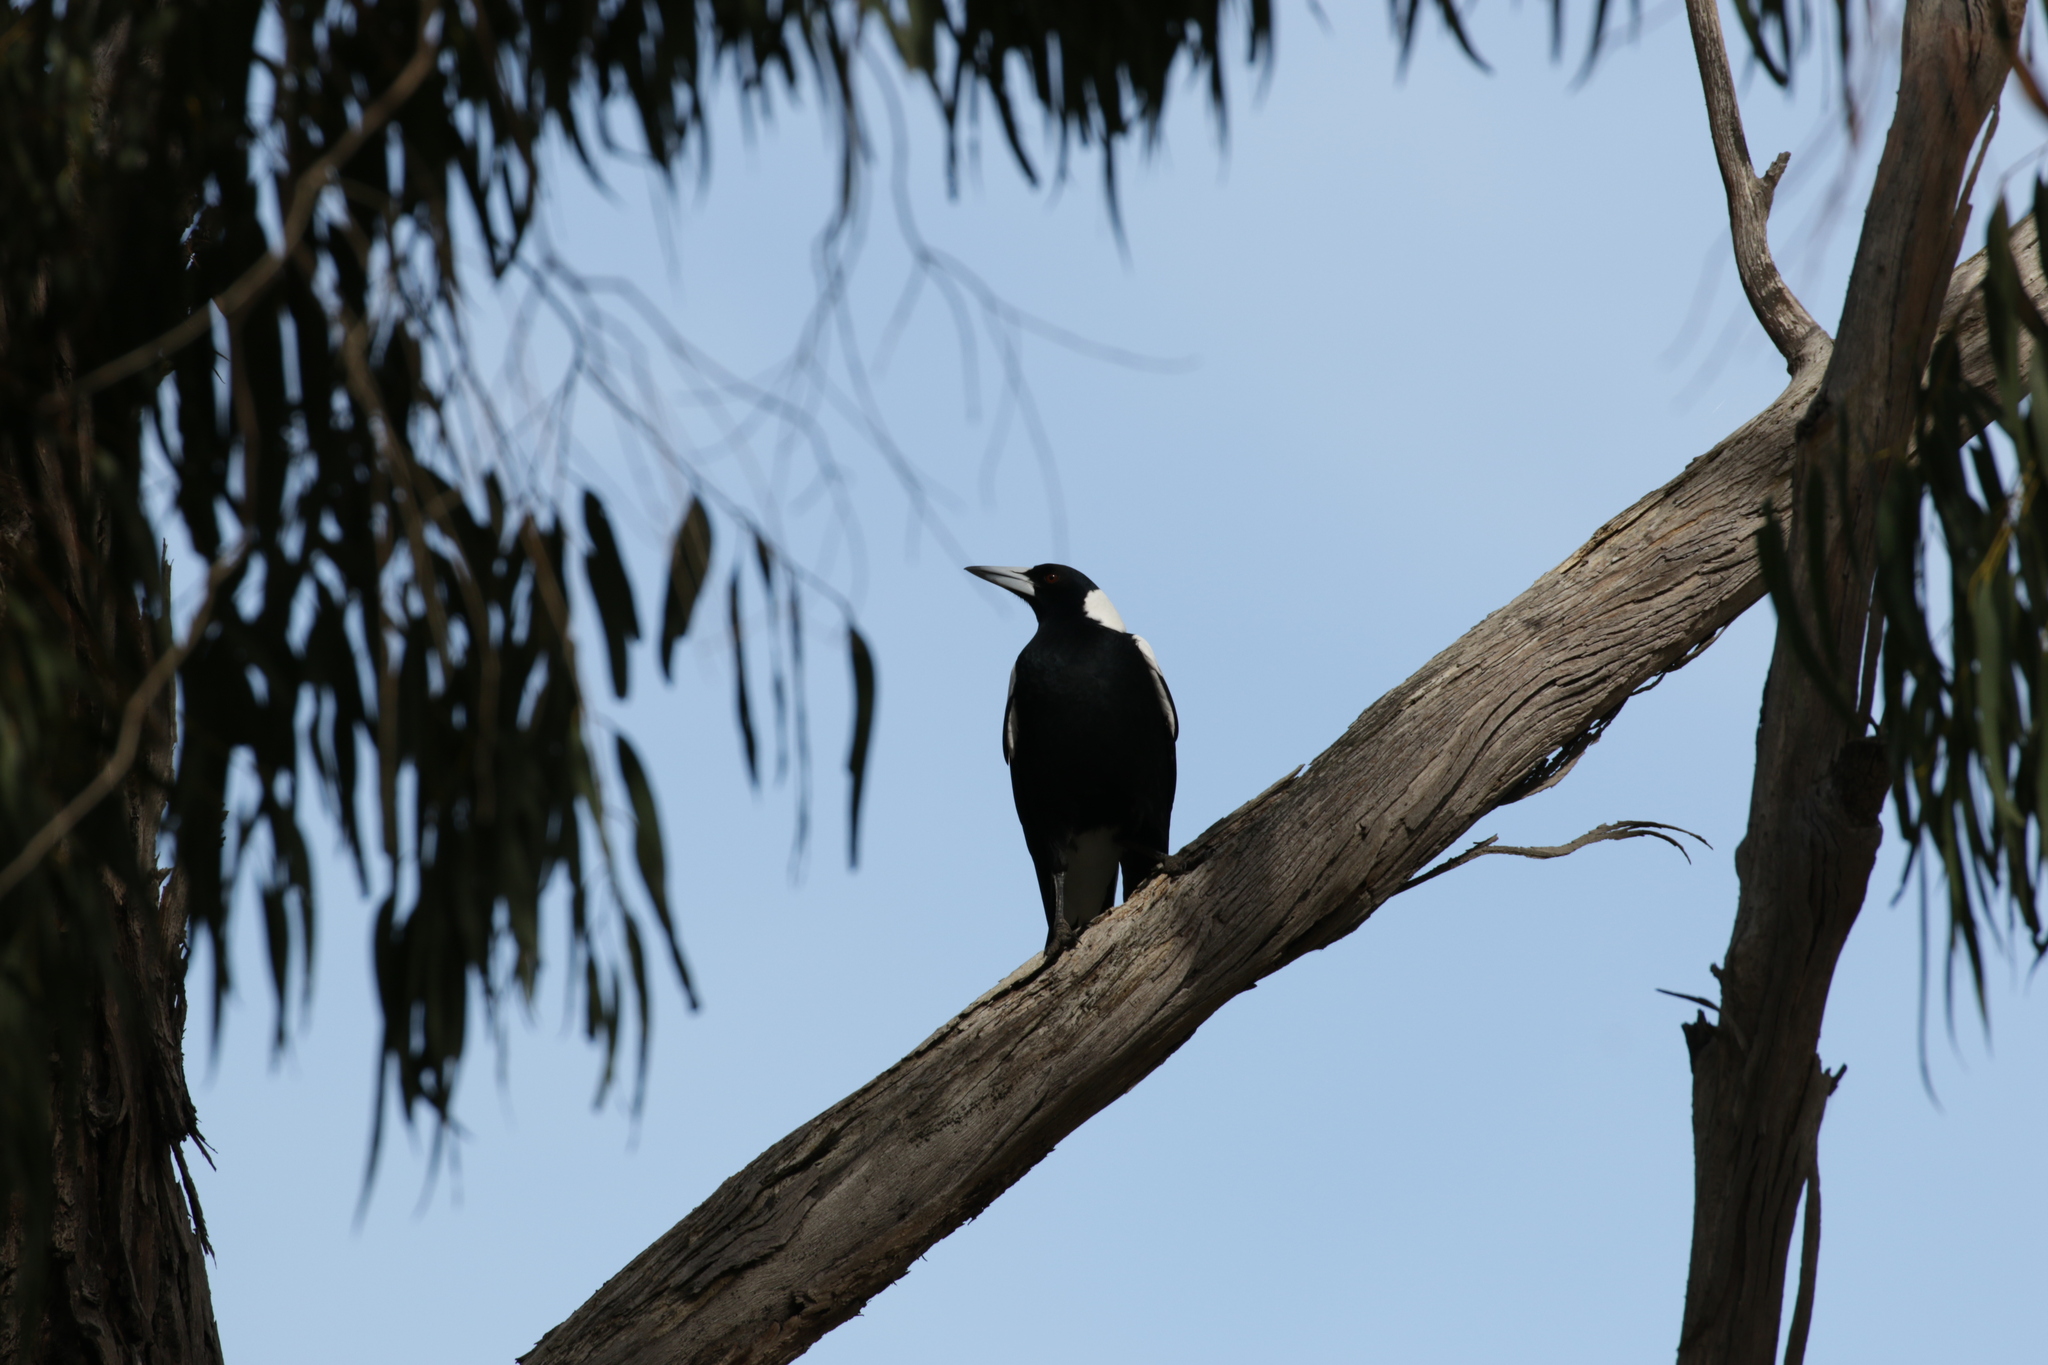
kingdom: Animalia
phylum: Chordata
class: Aves
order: Passeriformes
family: Cracticidae
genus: Gymnorhina
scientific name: Gymnorhina tibicen
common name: Australian magpie
